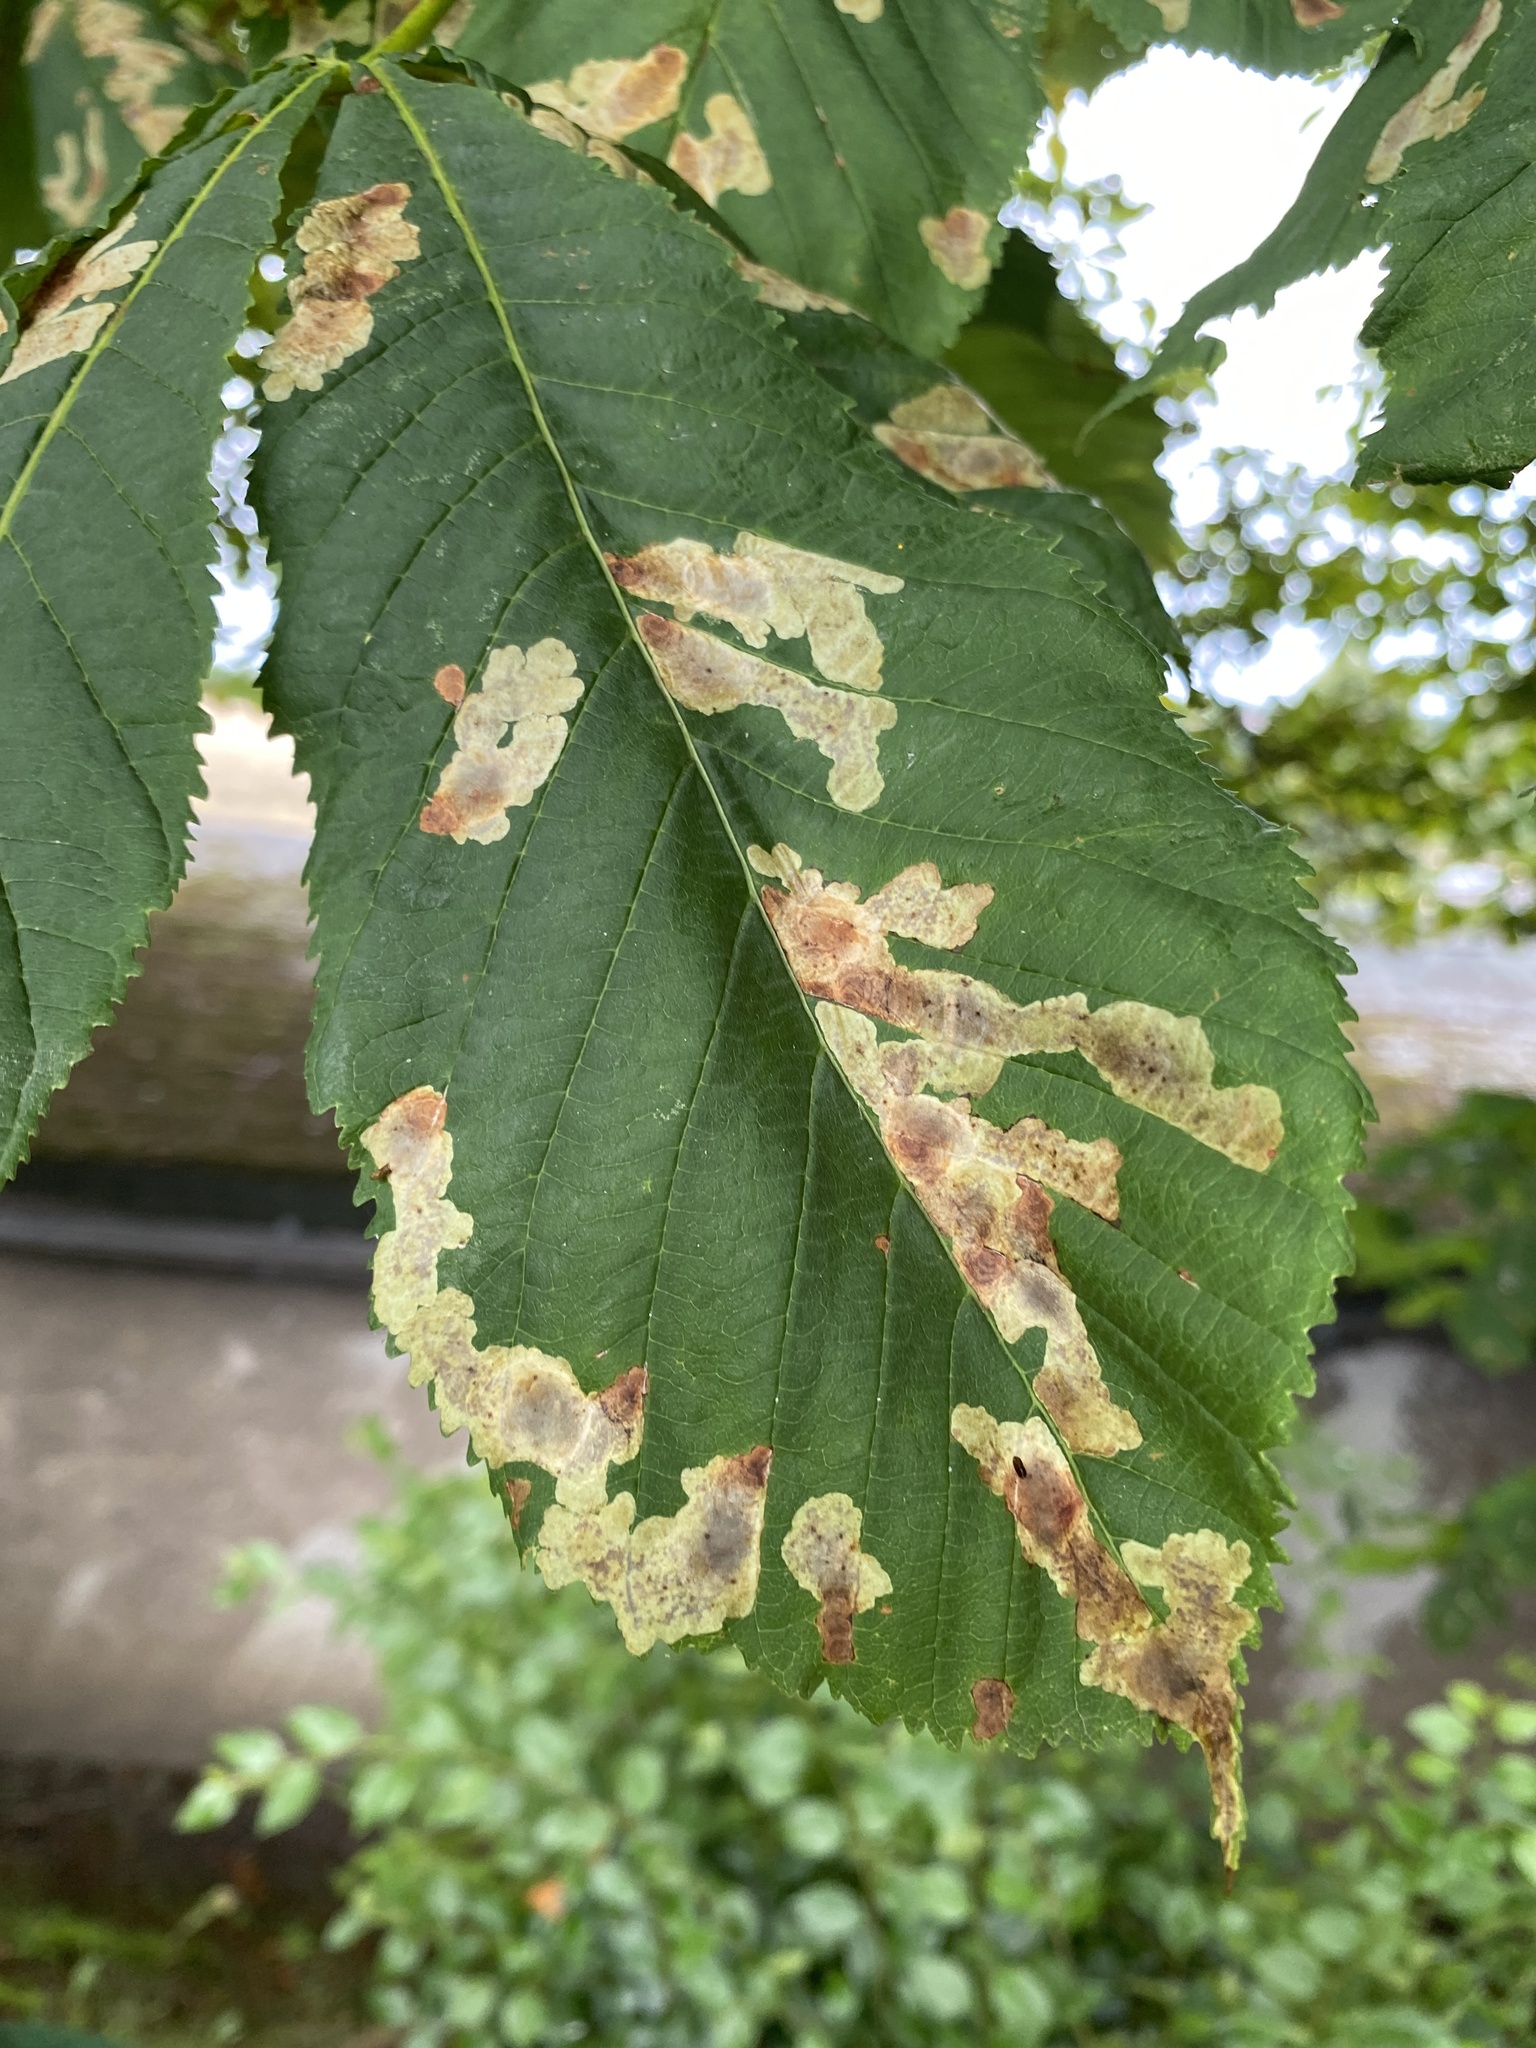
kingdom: Animalia
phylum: Arthropoda
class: Insecta
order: Lepidoptera
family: Gracillariidae
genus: Cameraria
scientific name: Cameraria ohridella
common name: Horse-chestnut leaf-miner
